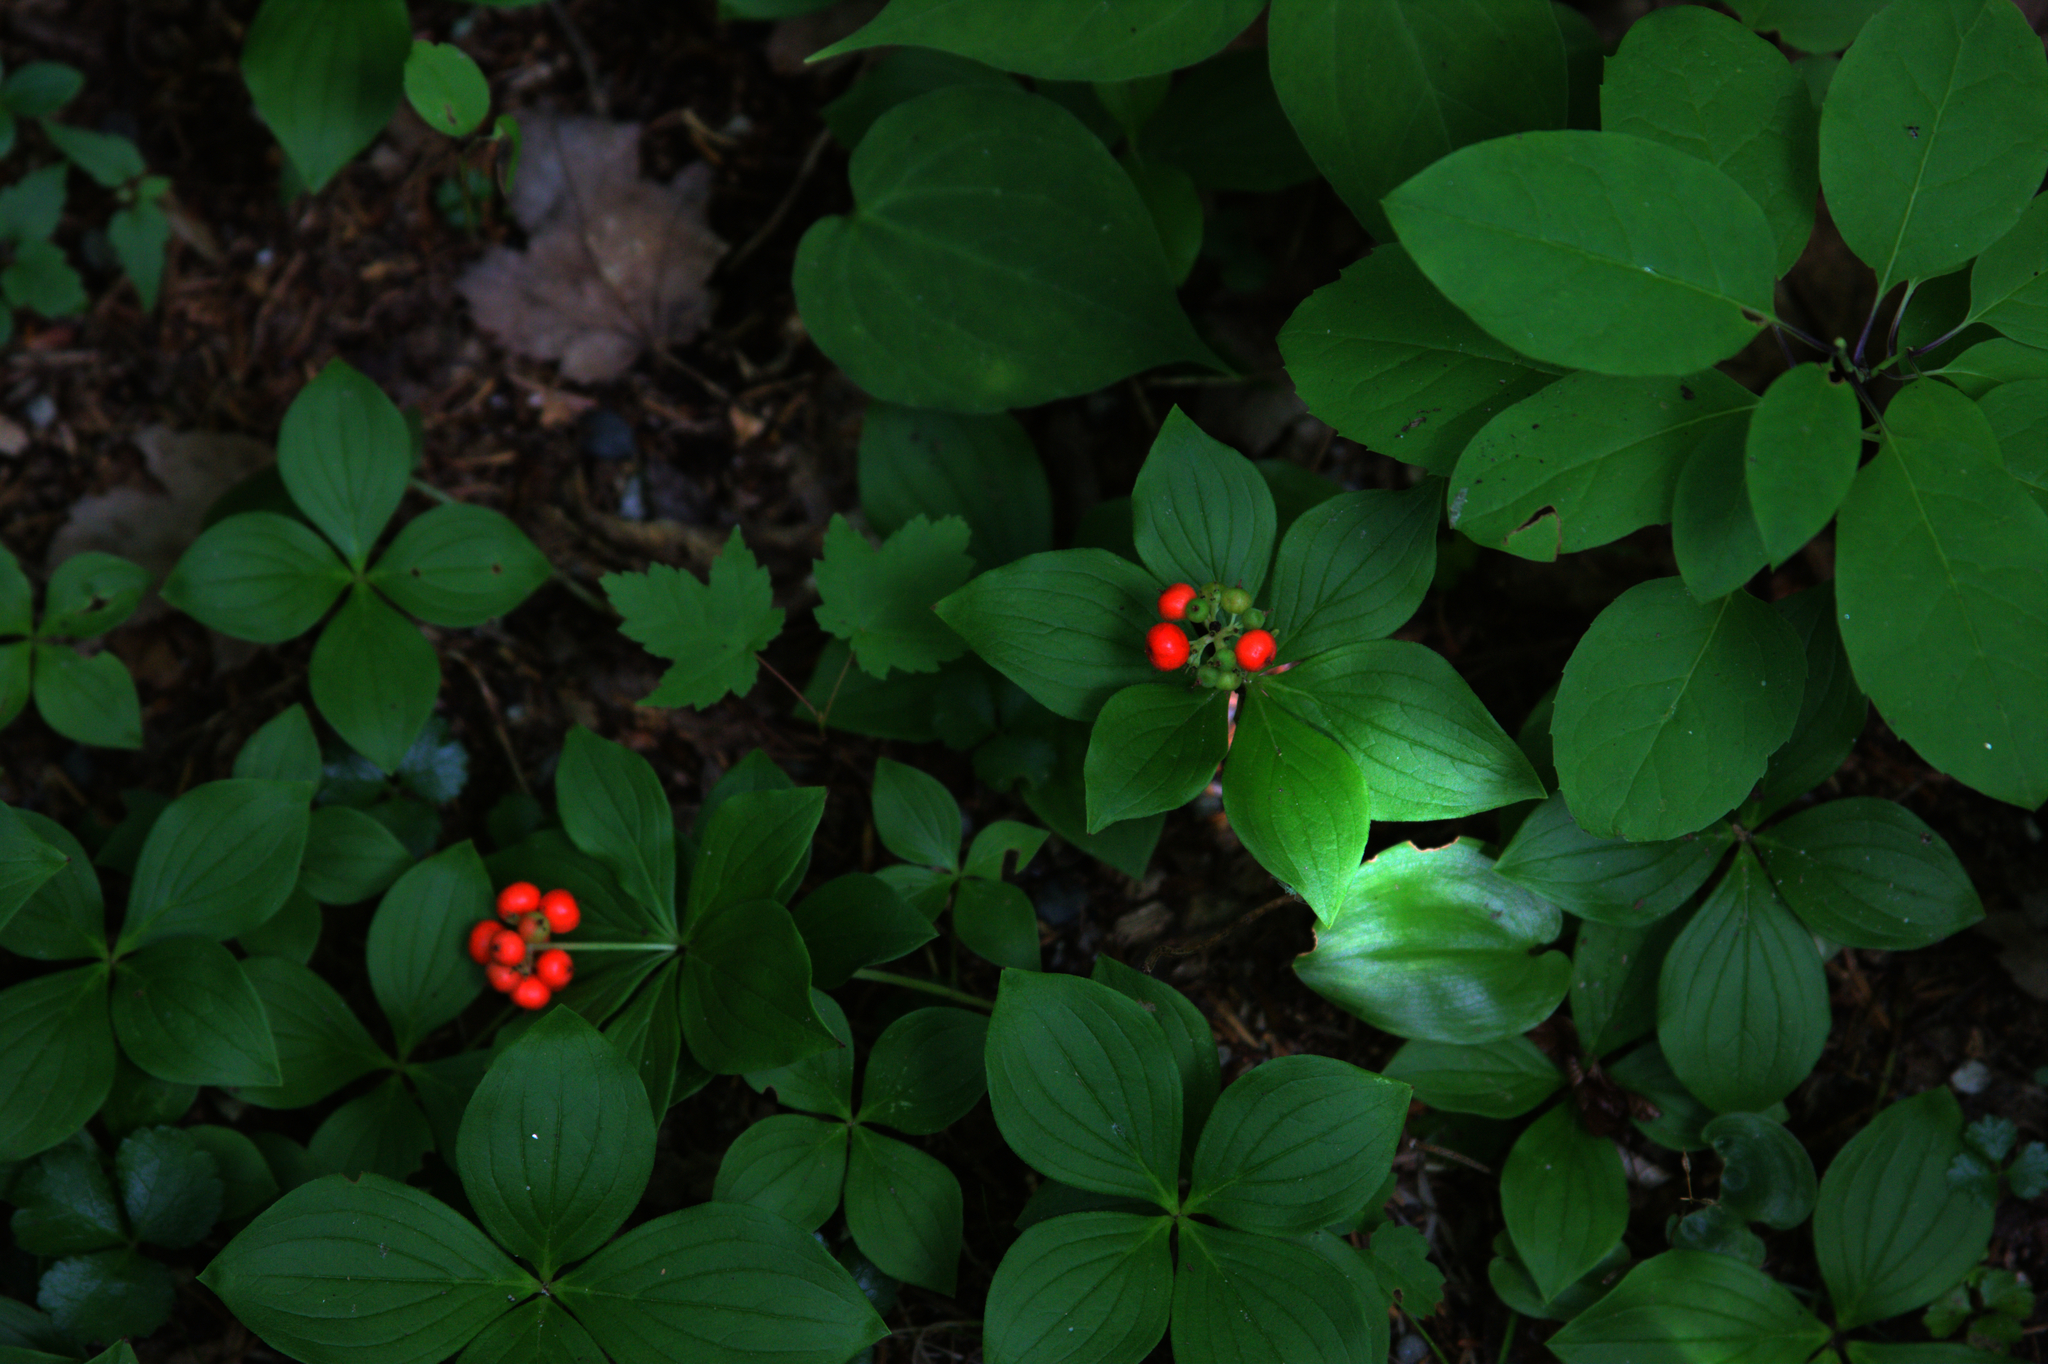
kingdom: Plantae
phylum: Tracheophyta
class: Magnoliopsida
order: Cornales
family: Cornaceae
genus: Cornus
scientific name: Cornus canadensis
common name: Creeping dogwood
